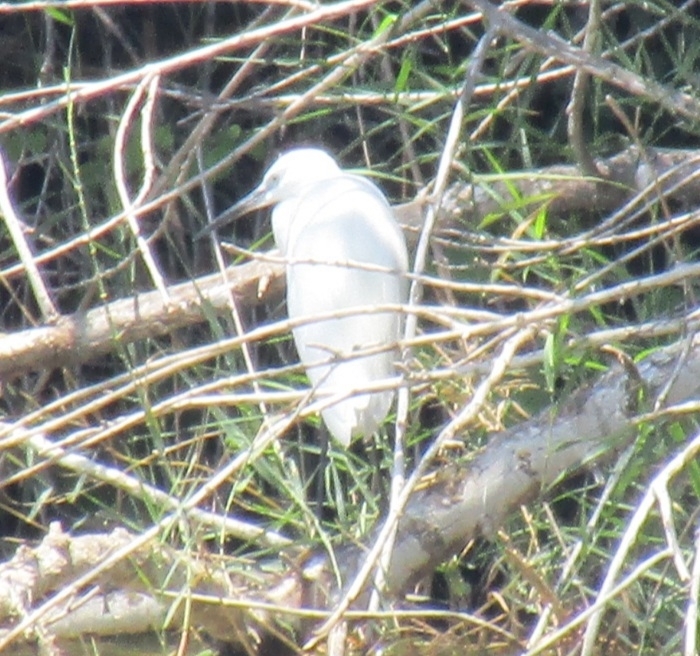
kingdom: Animalia
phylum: Chordata
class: Aves
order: Pelecaniformes
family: Ardeidae
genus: Egretta
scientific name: Egretta garzetta
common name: Little egret
